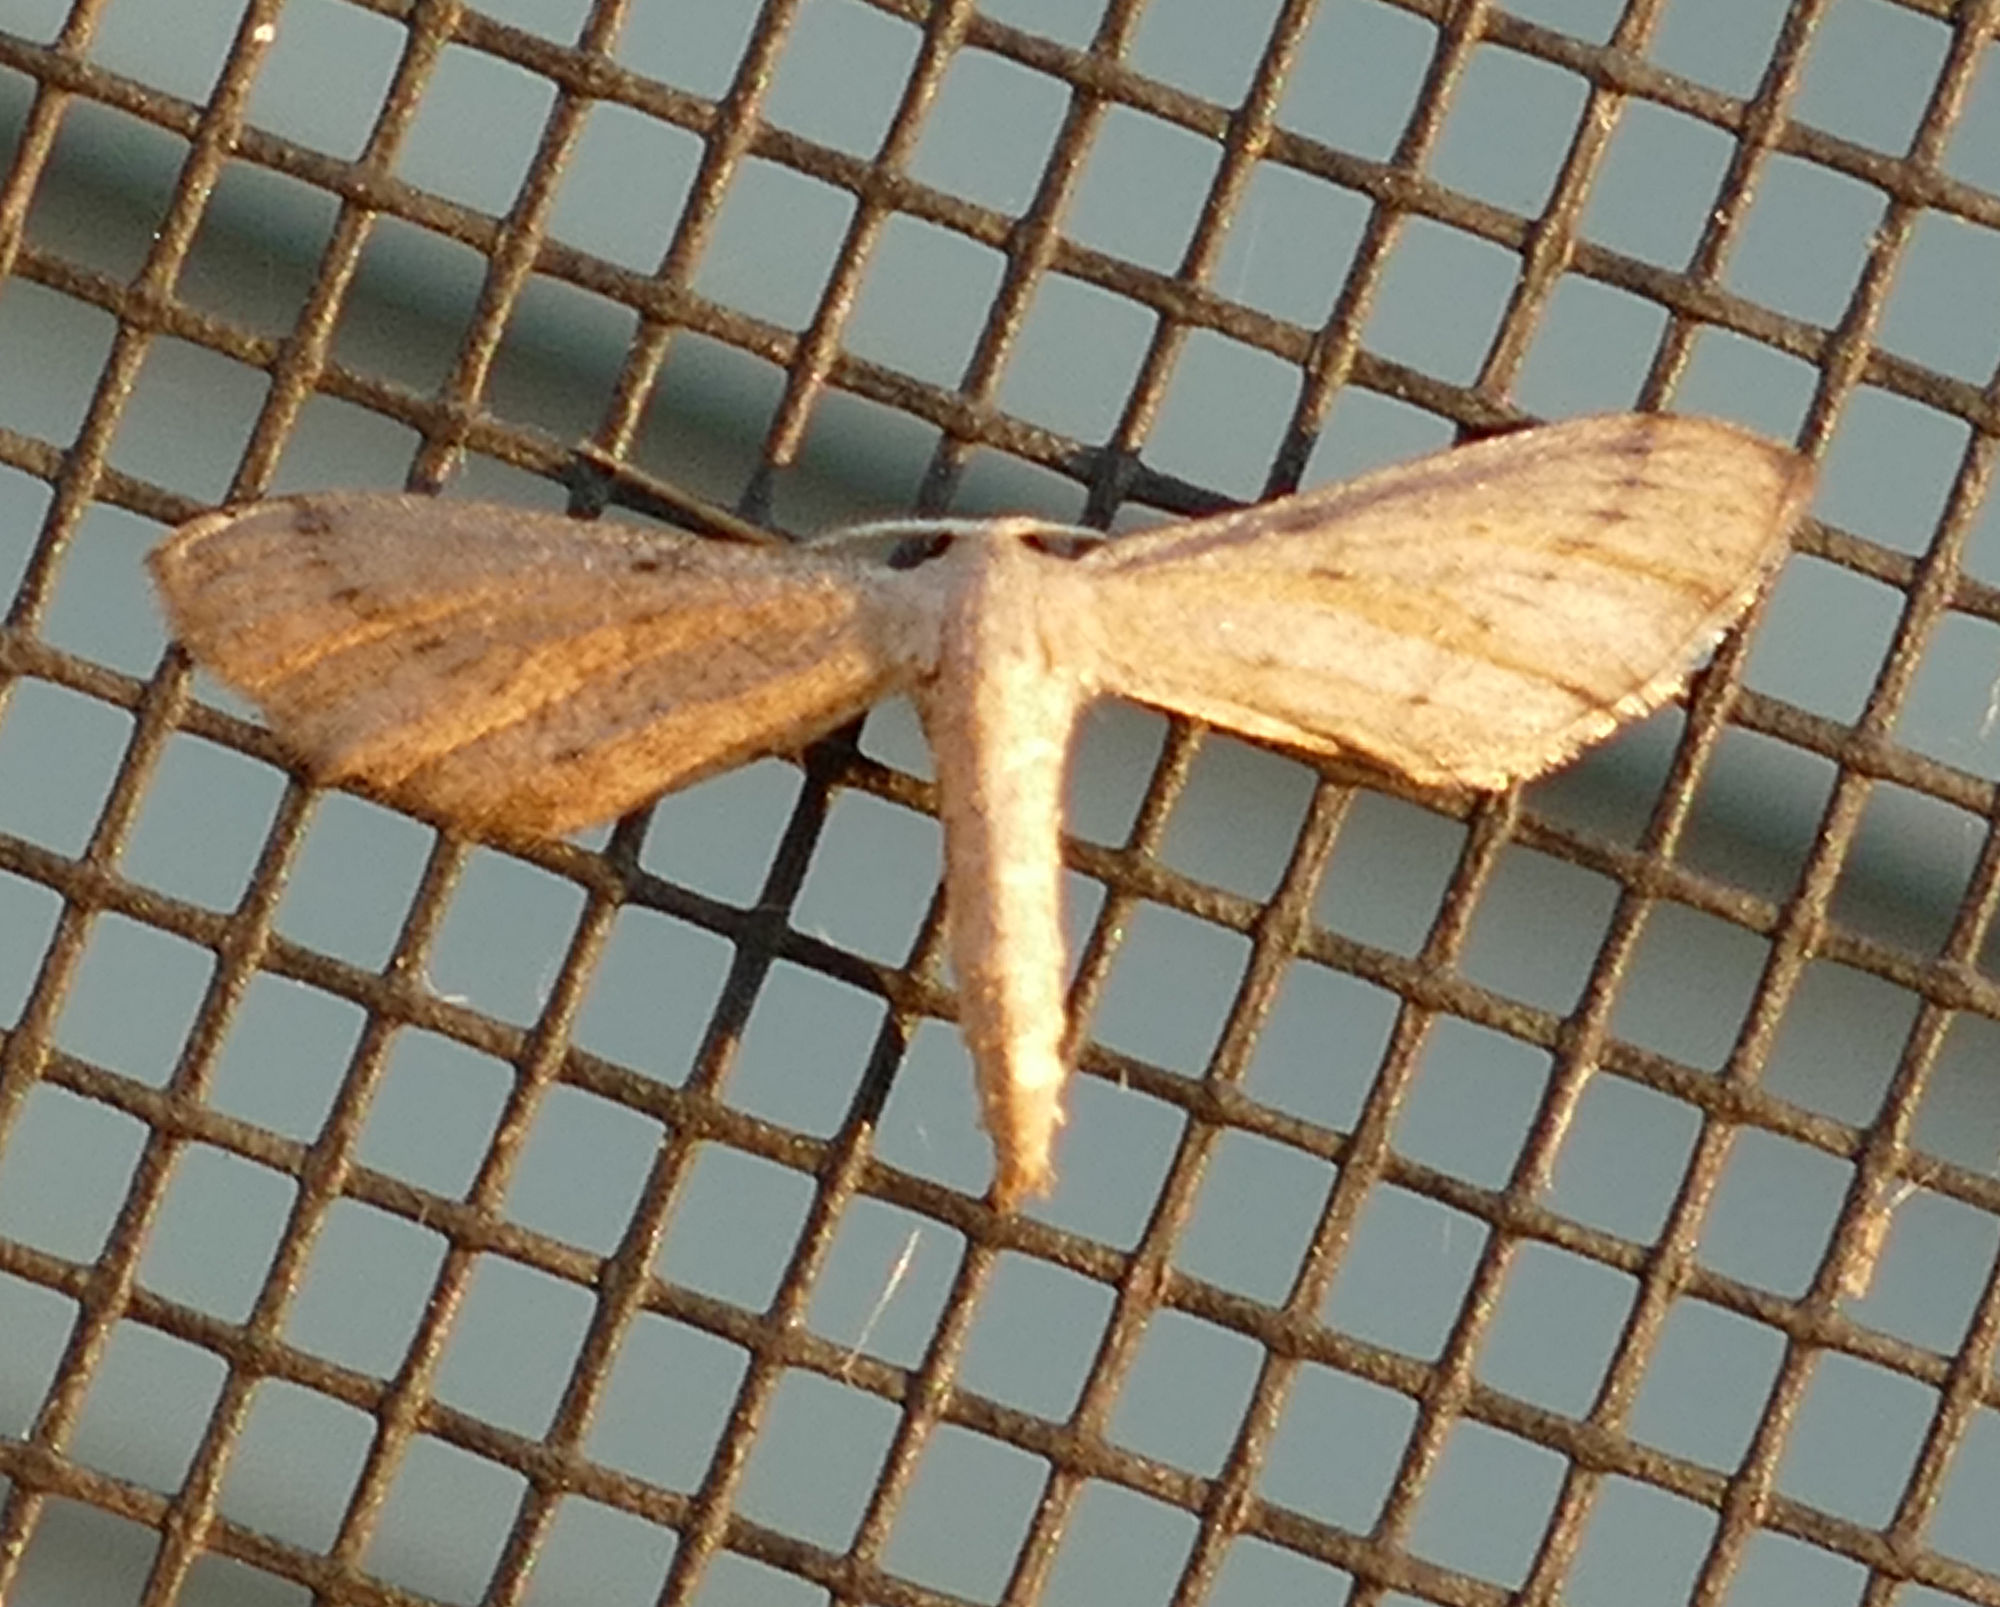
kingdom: Animalia
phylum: Arthropoda
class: Insecta
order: Lepidoptera
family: Geometridae
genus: Euacidalia
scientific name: Euacidalia sericearia
